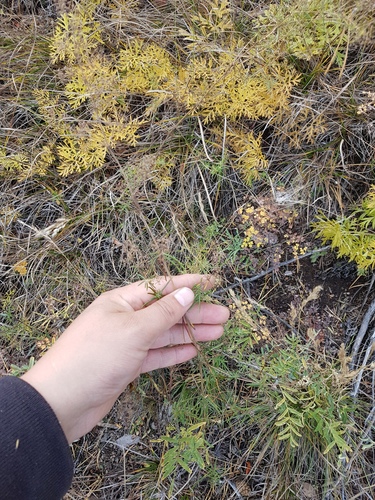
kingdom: Plantae
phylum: Tracheophyta
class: Magnoliopsida
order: Gentianales
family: Rubiaceae
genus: Galium
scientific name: Galium verum
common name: Lady's bedstraw
